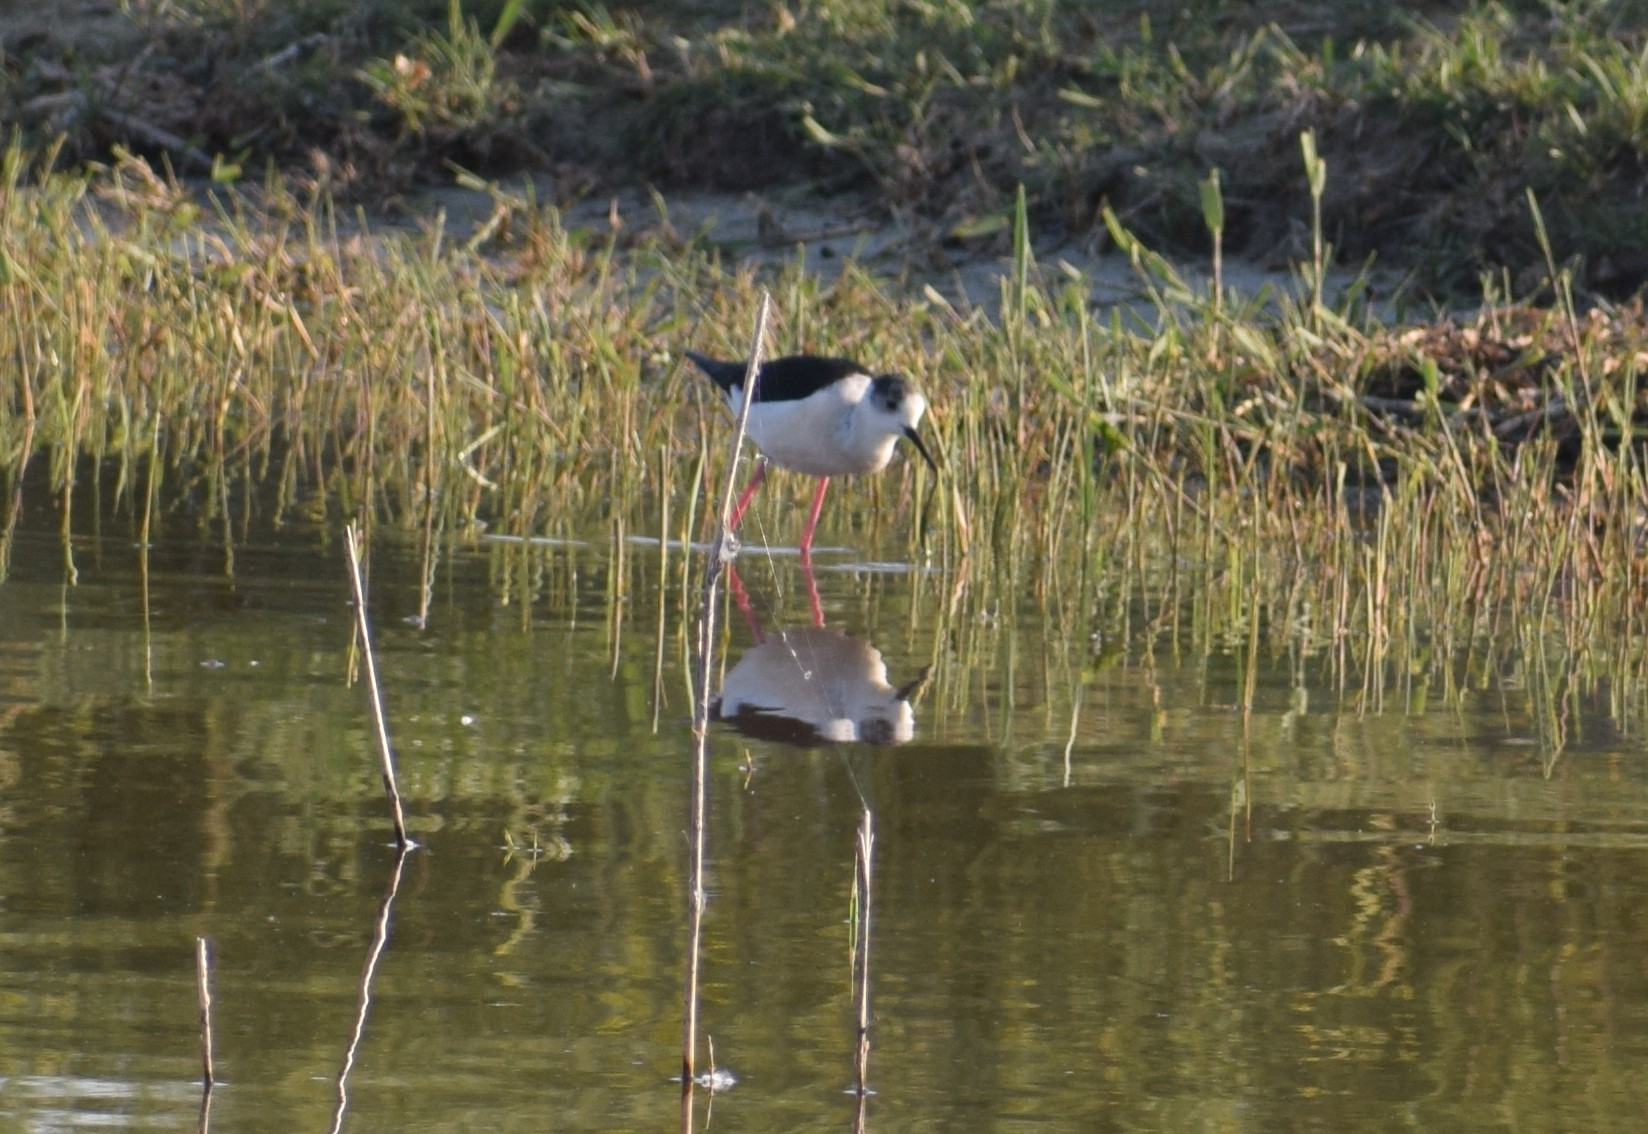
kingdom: Animalia
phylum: Chordata
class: Aves
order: Charadriiformes
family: Recurvirostridae
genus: Himantopus
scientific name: Himantopus himantopus
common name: Black-winged stilt
